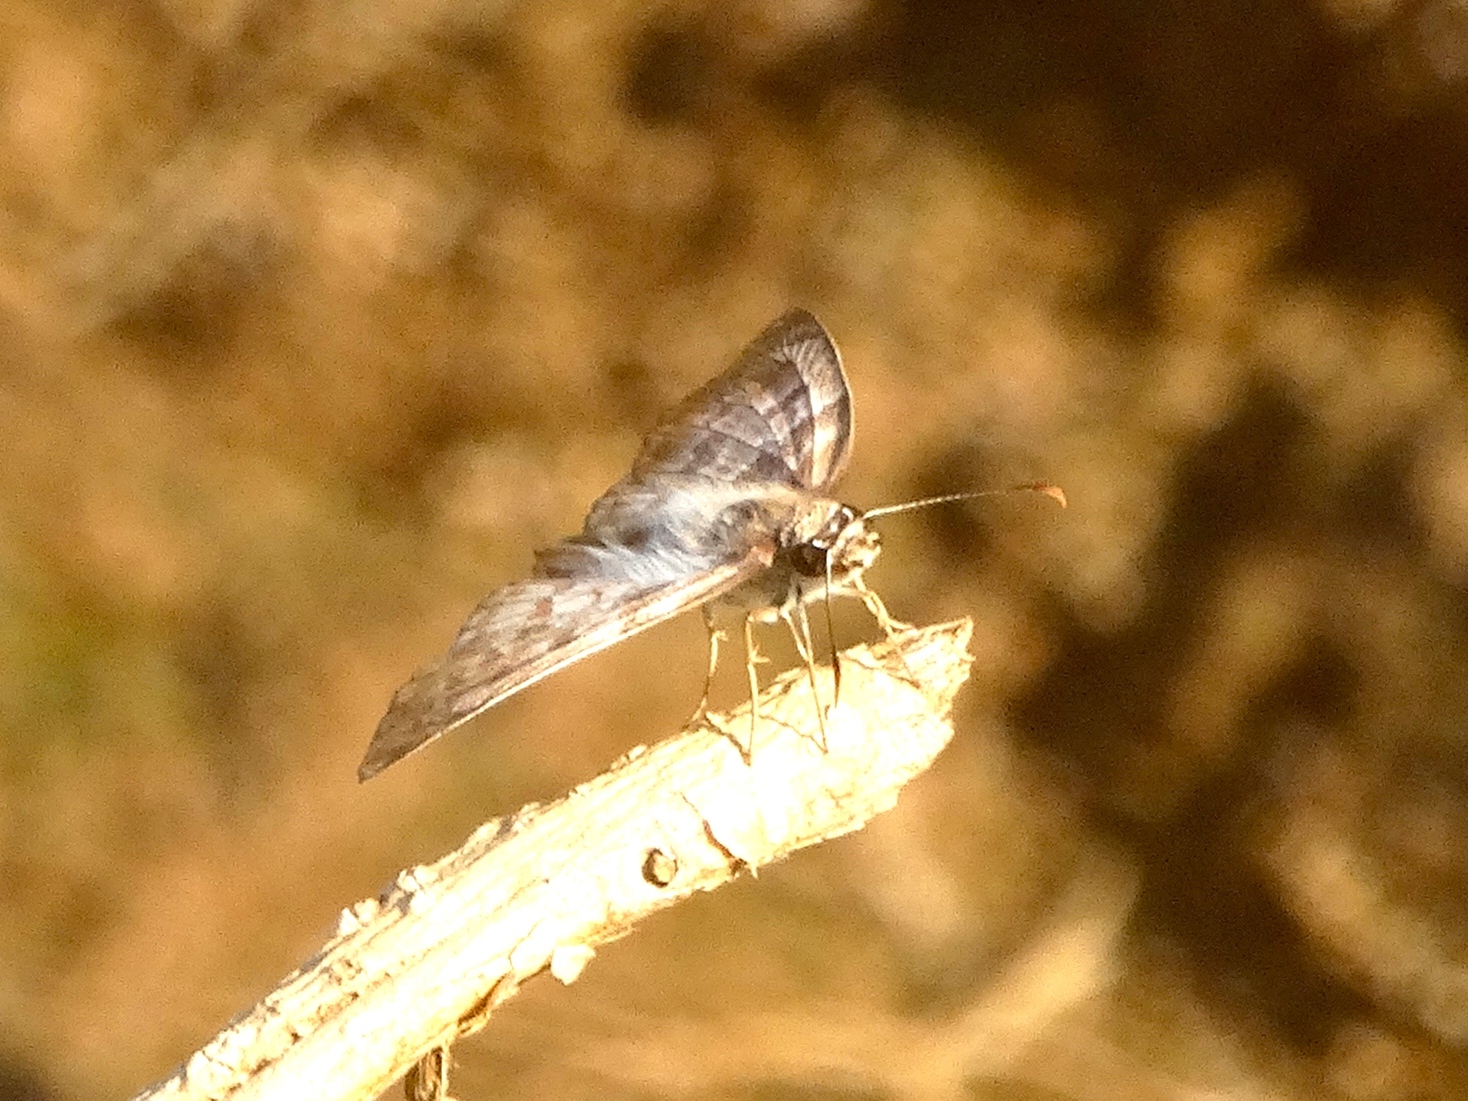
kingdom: Animalia
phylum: Arthropoda
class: Insecta
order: Lepidoptera
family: Hesperiidae
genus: Mylon
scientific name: Mylon pelopidas
